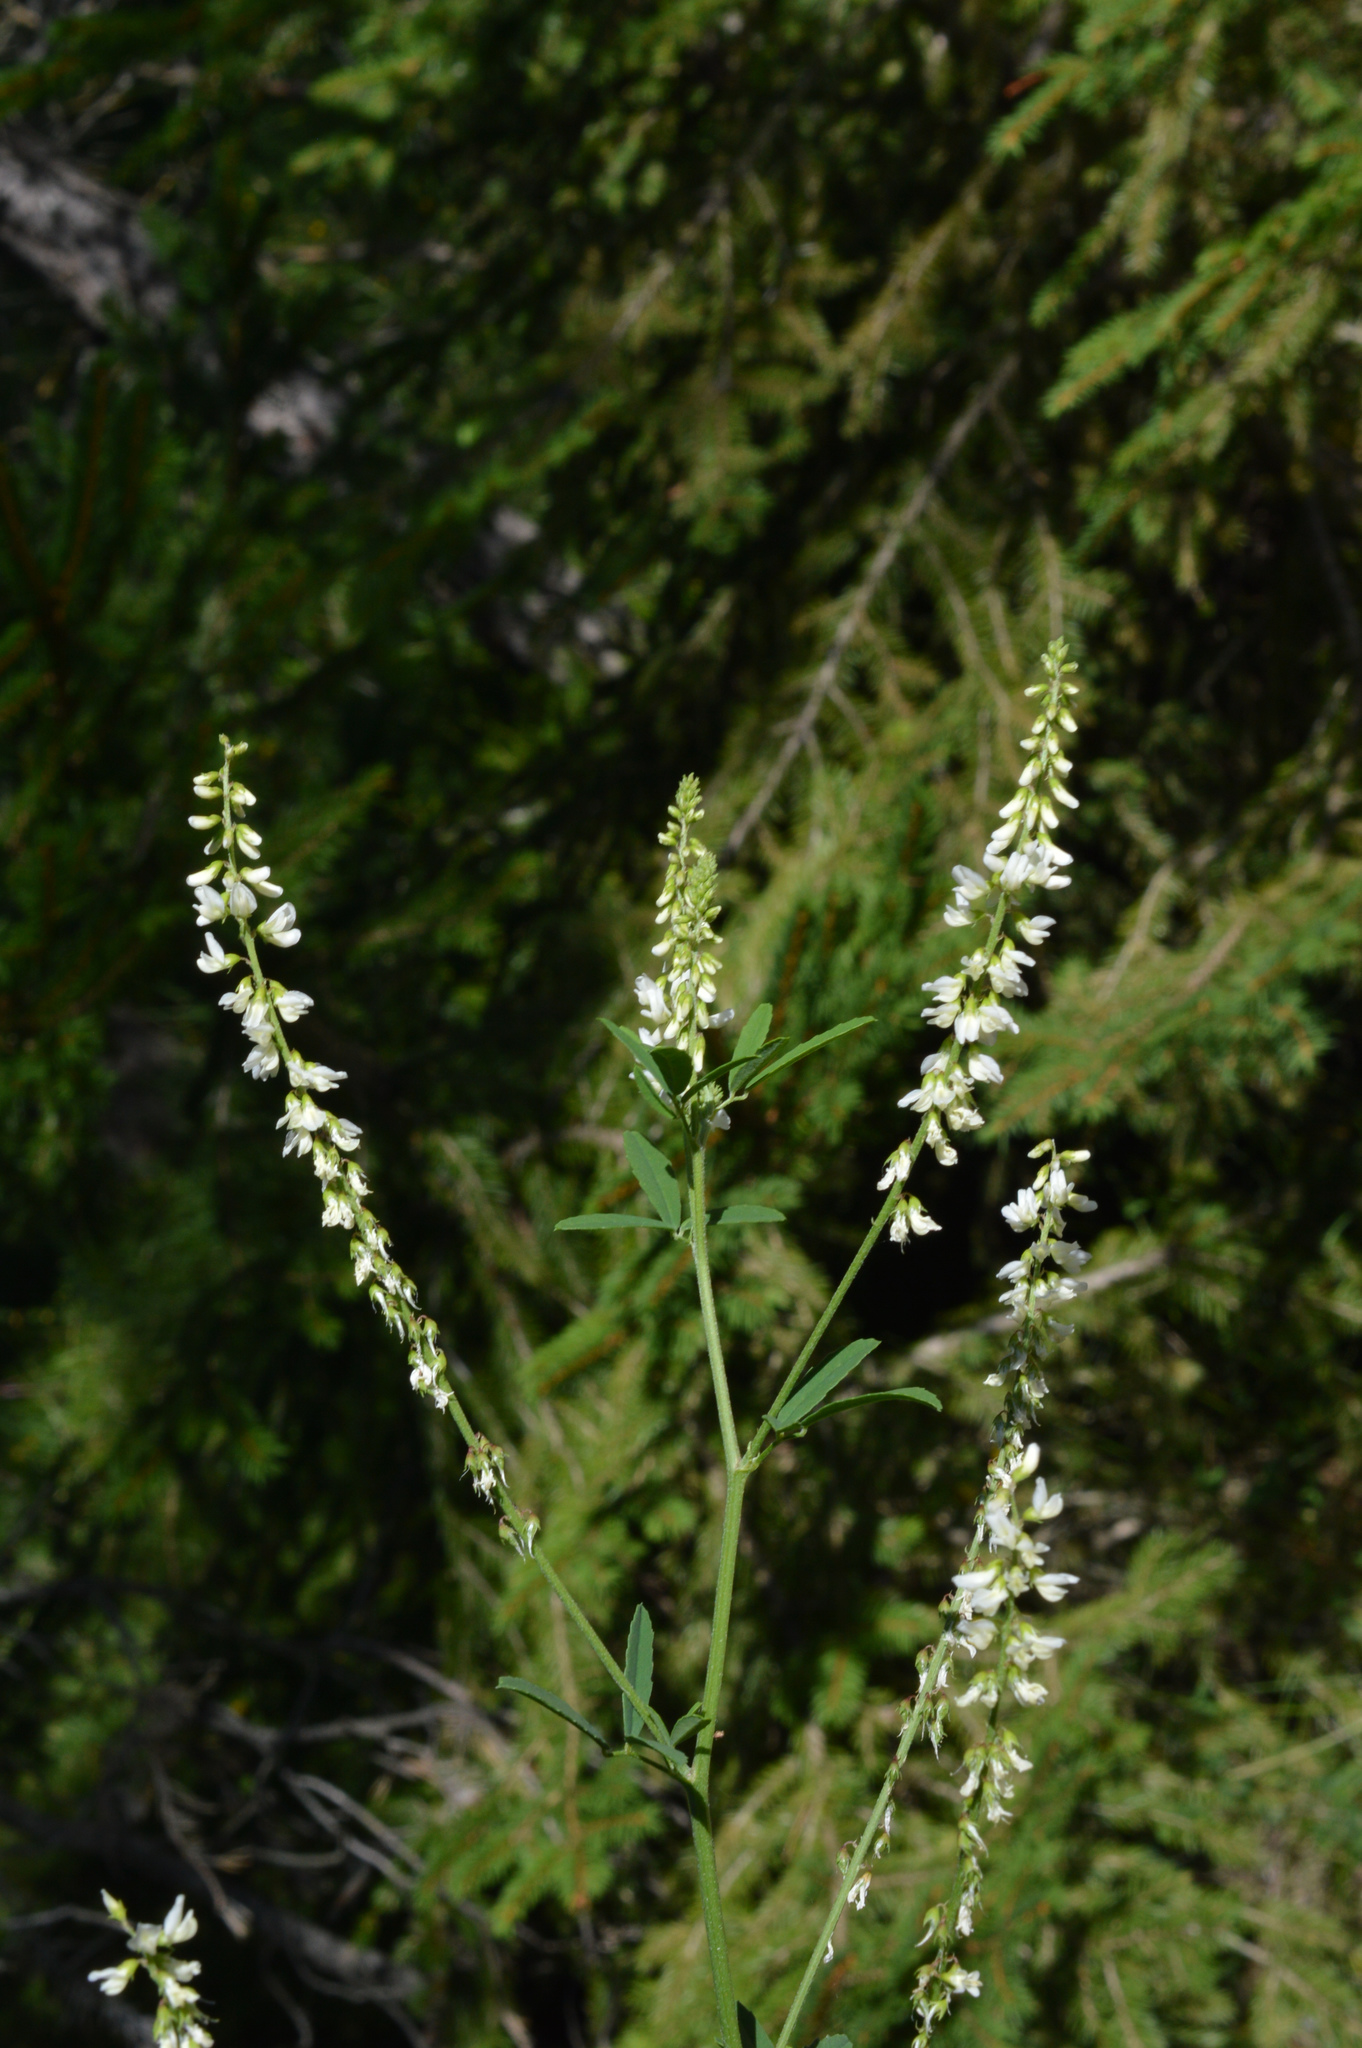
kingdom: Plantae
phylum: Tracheophyta
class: Magnoliopsida
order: Fabales
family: Fabaceae
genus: Melilotus
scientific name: Melilotus albus
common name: White melilot
